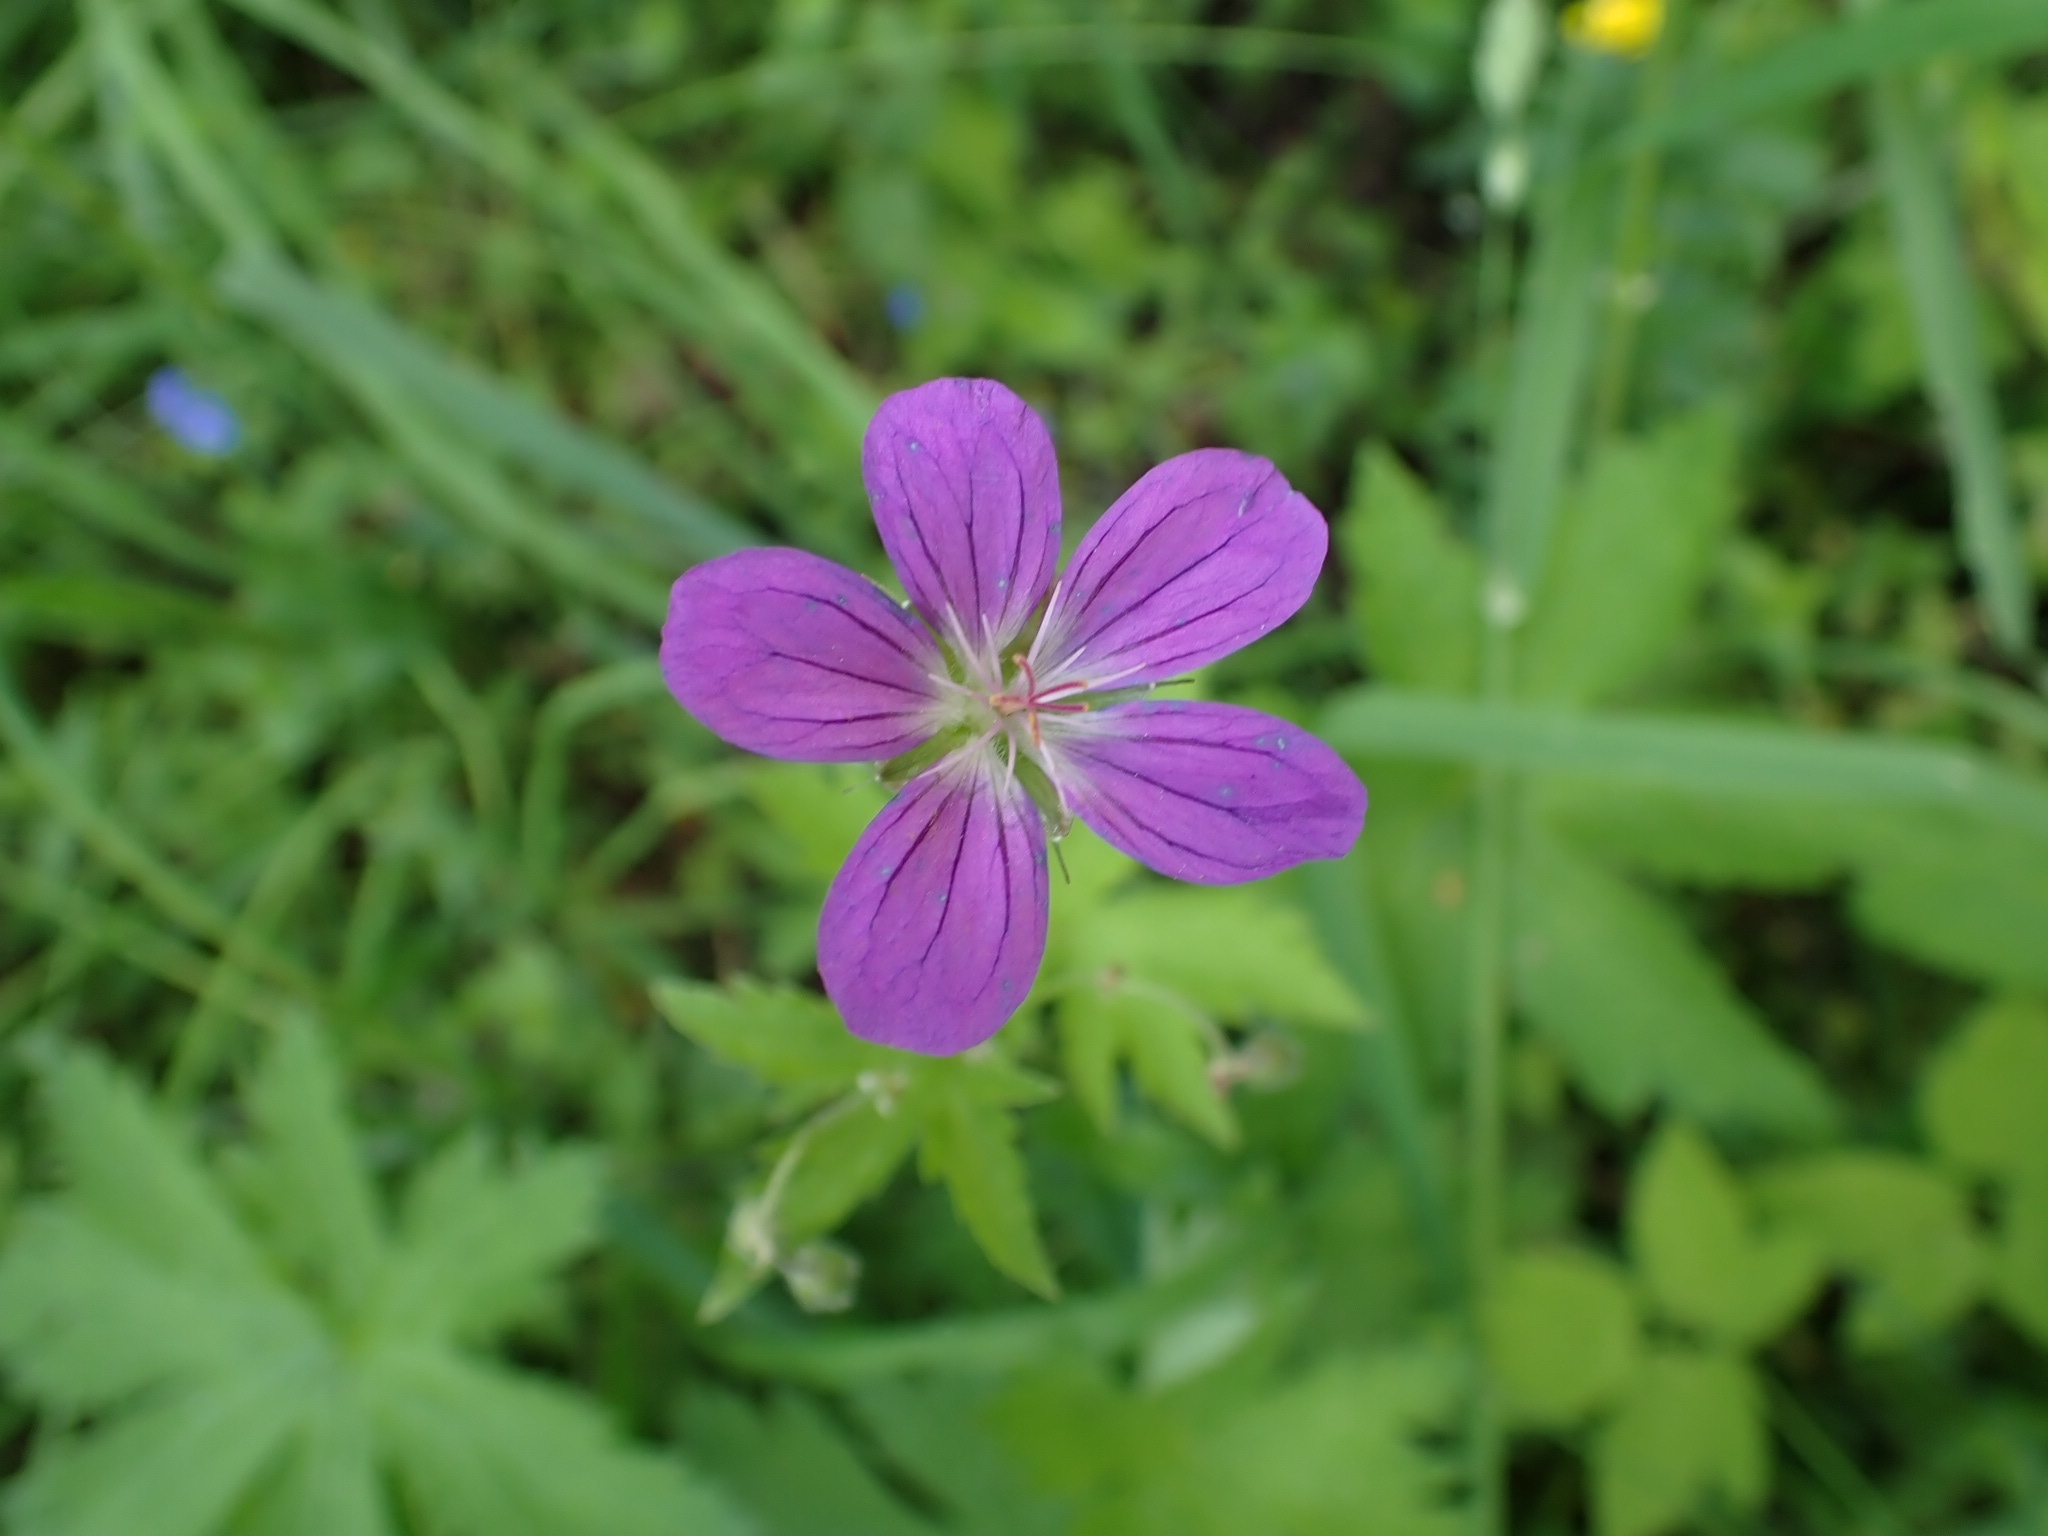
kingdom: Plantae
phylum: Tracheophyta
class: Magnoliopsida
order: Geraniales
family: Geraniaceae
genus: Geranium
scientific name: Geranium sylvaticum
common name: Wood crane's-bill
